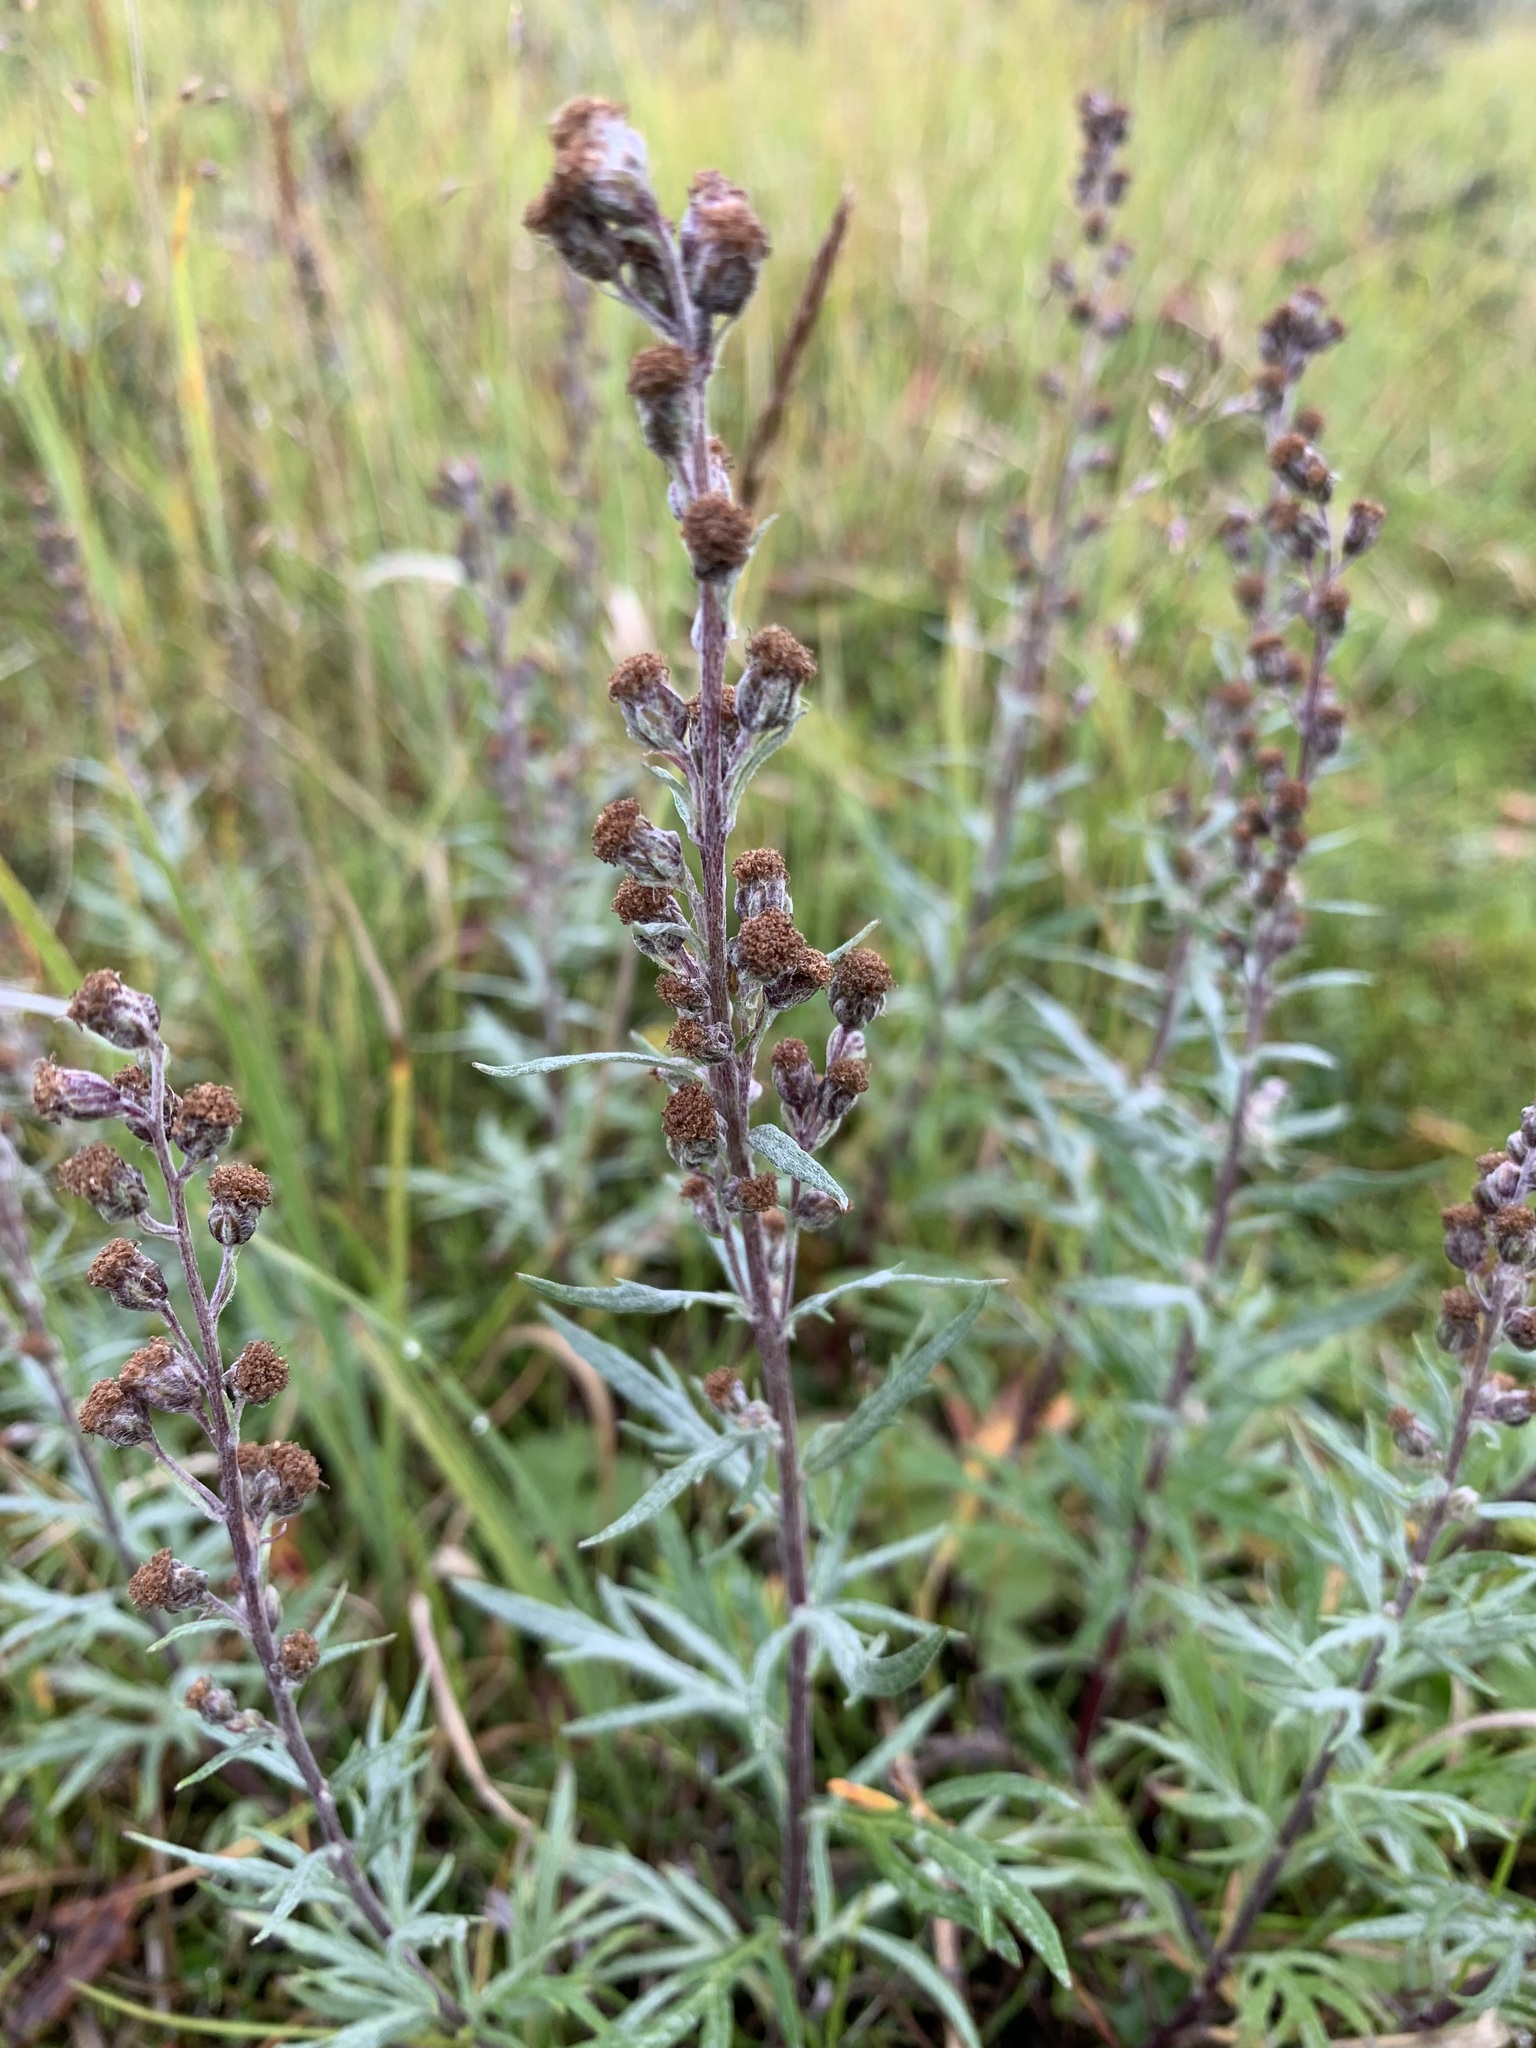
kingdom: Plantae
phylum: Tracheophyta
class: Magnoliopsida
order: Asterales
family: Asteraceae
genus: Artemisia
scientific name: Artemisia tilesii
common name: Aleutian mugwort
